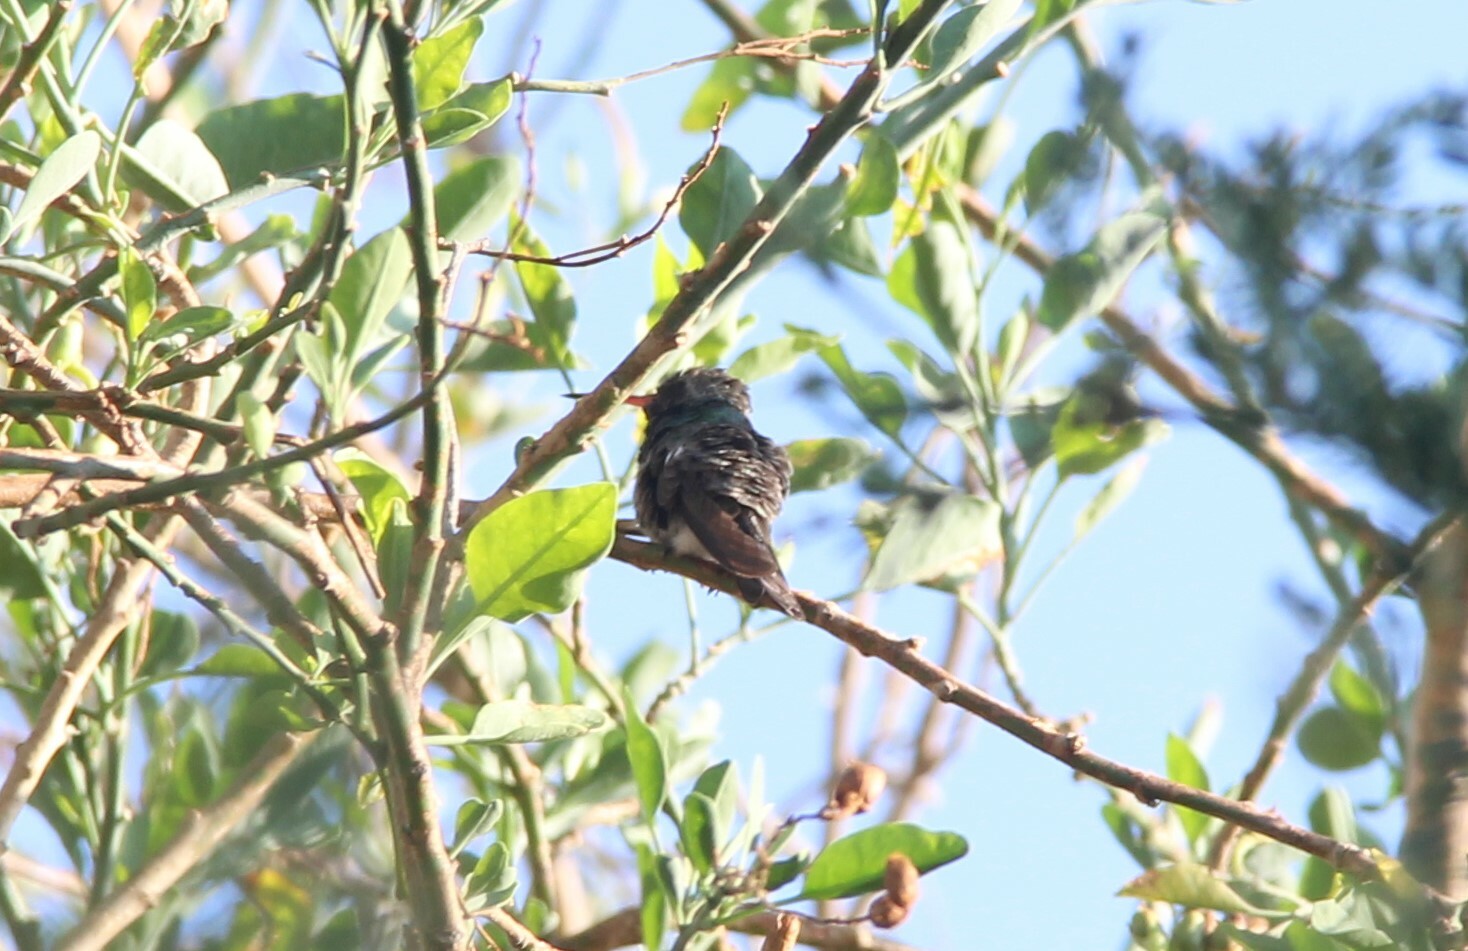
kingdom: Animalia
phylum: Chordata
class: Aves
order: Apodiformes
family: Trochilidae
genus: Cynanthus
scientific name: Cynanthus latirostris
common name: Broad-billed hummingbird
